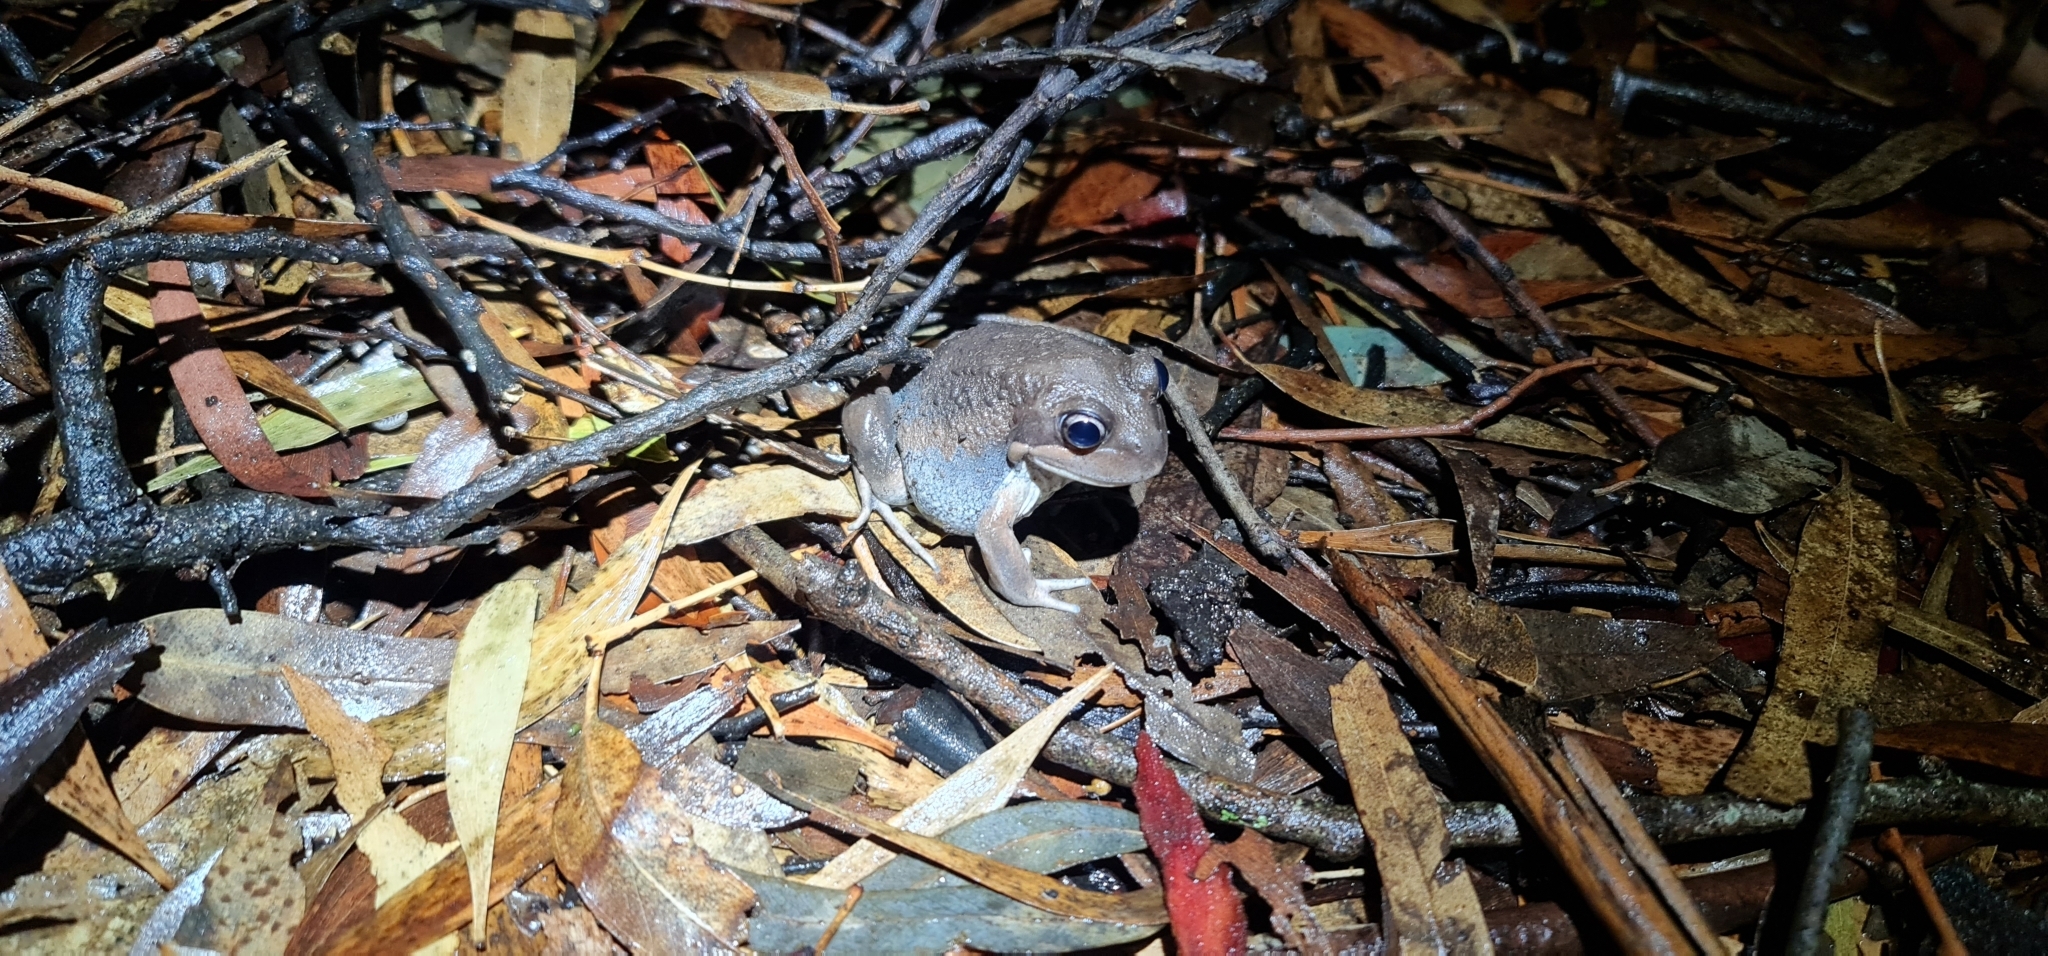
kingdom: Animalia
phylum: Chordata
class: Amphibia
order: Anura
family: Limnodynastidae
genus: Limnodynastes
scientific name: Limnodynastes dumerilii
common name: Banjo frog
